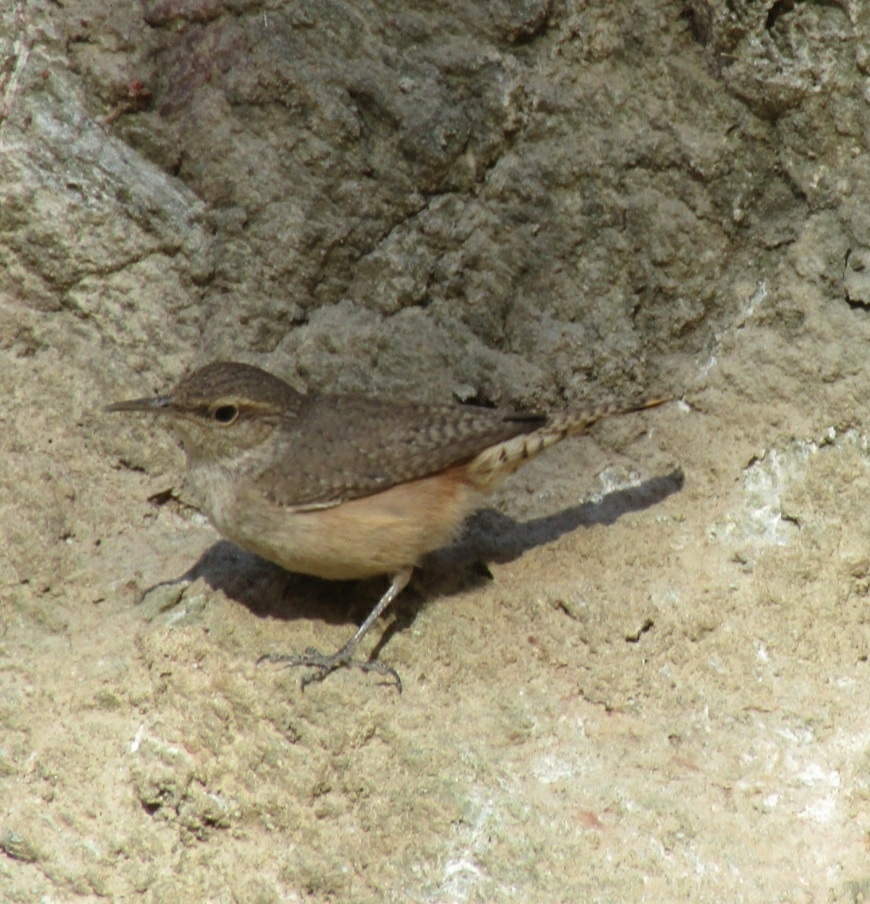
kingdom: Animalia
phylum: Chordata
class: Aves
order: Passeriformes
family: Troglodytidae
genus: Salpinctes
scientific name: Salpinctes obsoletus
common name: Rock wren
